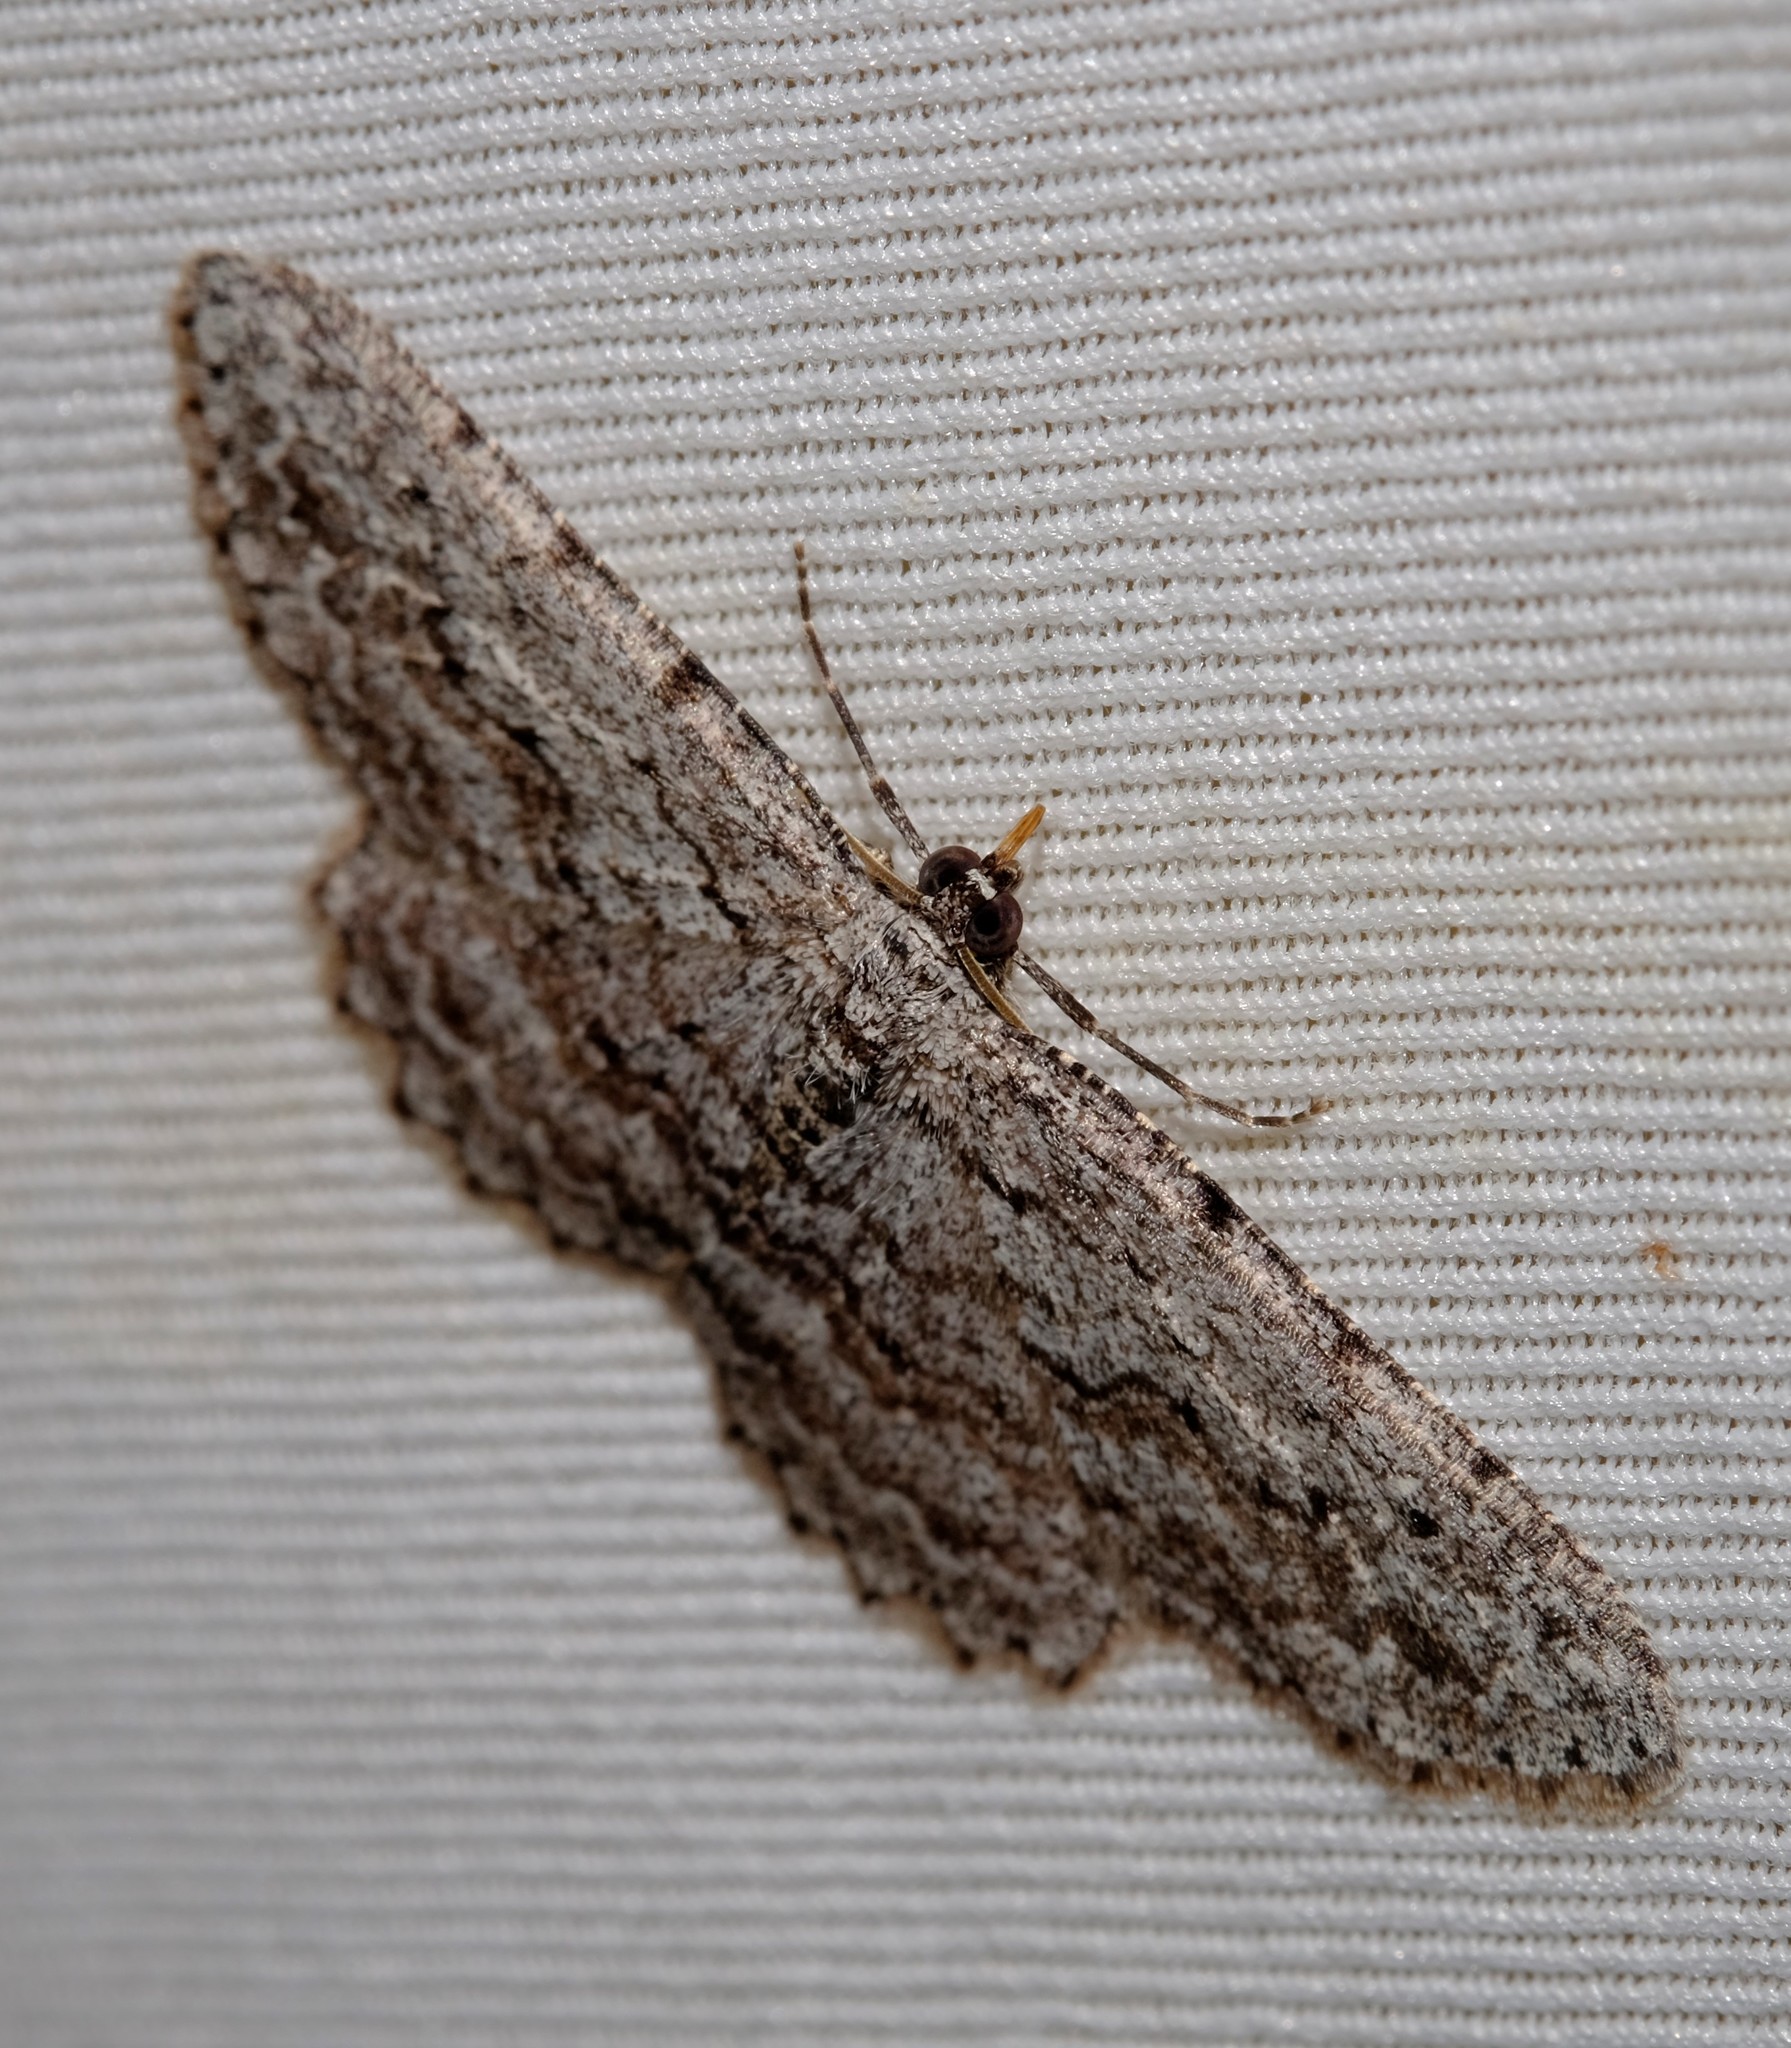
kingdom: Animalia
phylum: Arthropoda
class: Insecta
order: Lepidoptera
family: Geometridae
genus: Psilosticha
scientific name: Psilosticha absorpta
